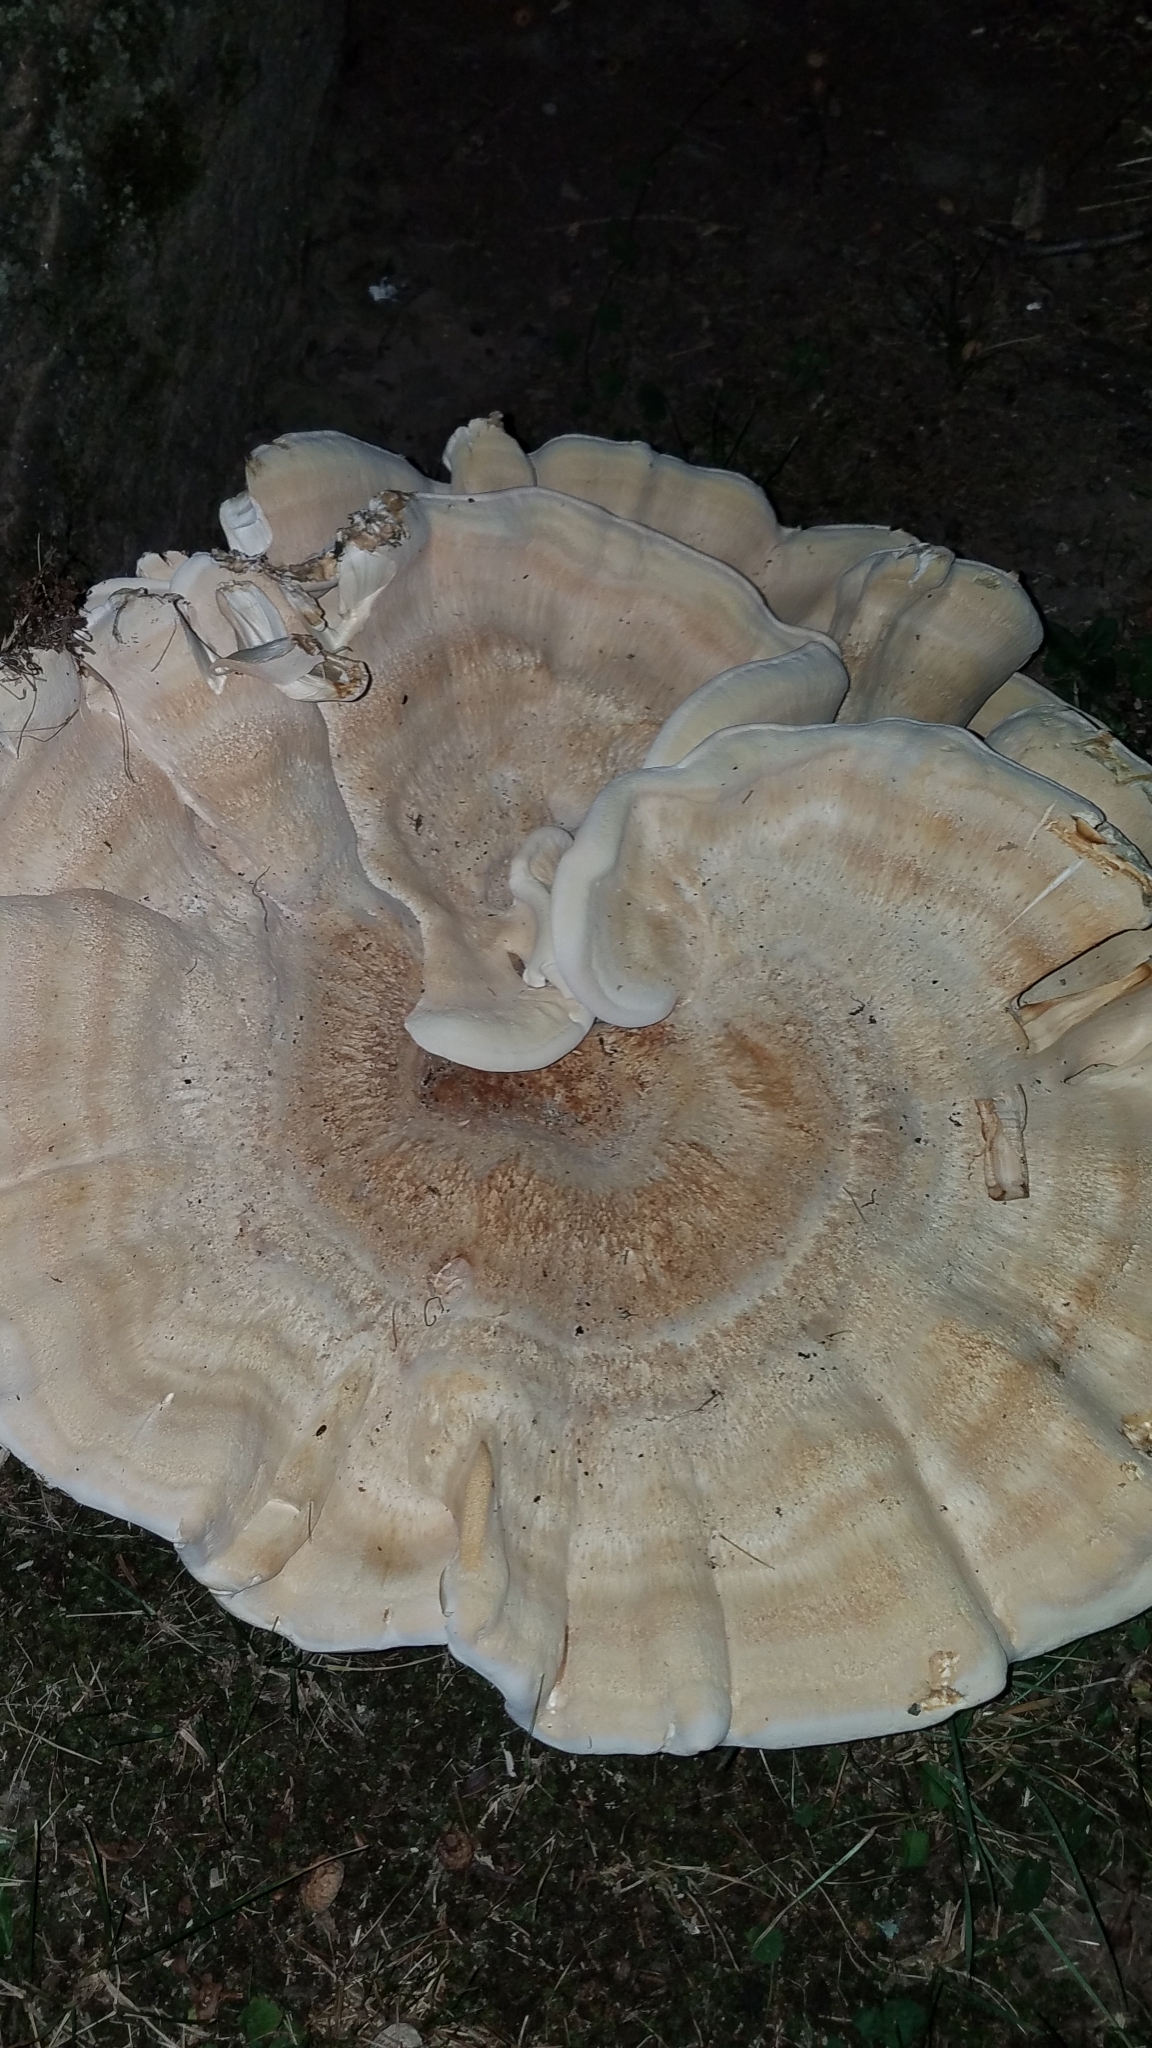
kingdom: Fungi
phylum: Basidiomycota
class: Agaricomycetes
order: Russulales
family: Bondarzewiaceae
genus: Bondarzewia
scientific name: Bondarzewia berkeleyi
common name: Berkeley's polypore
